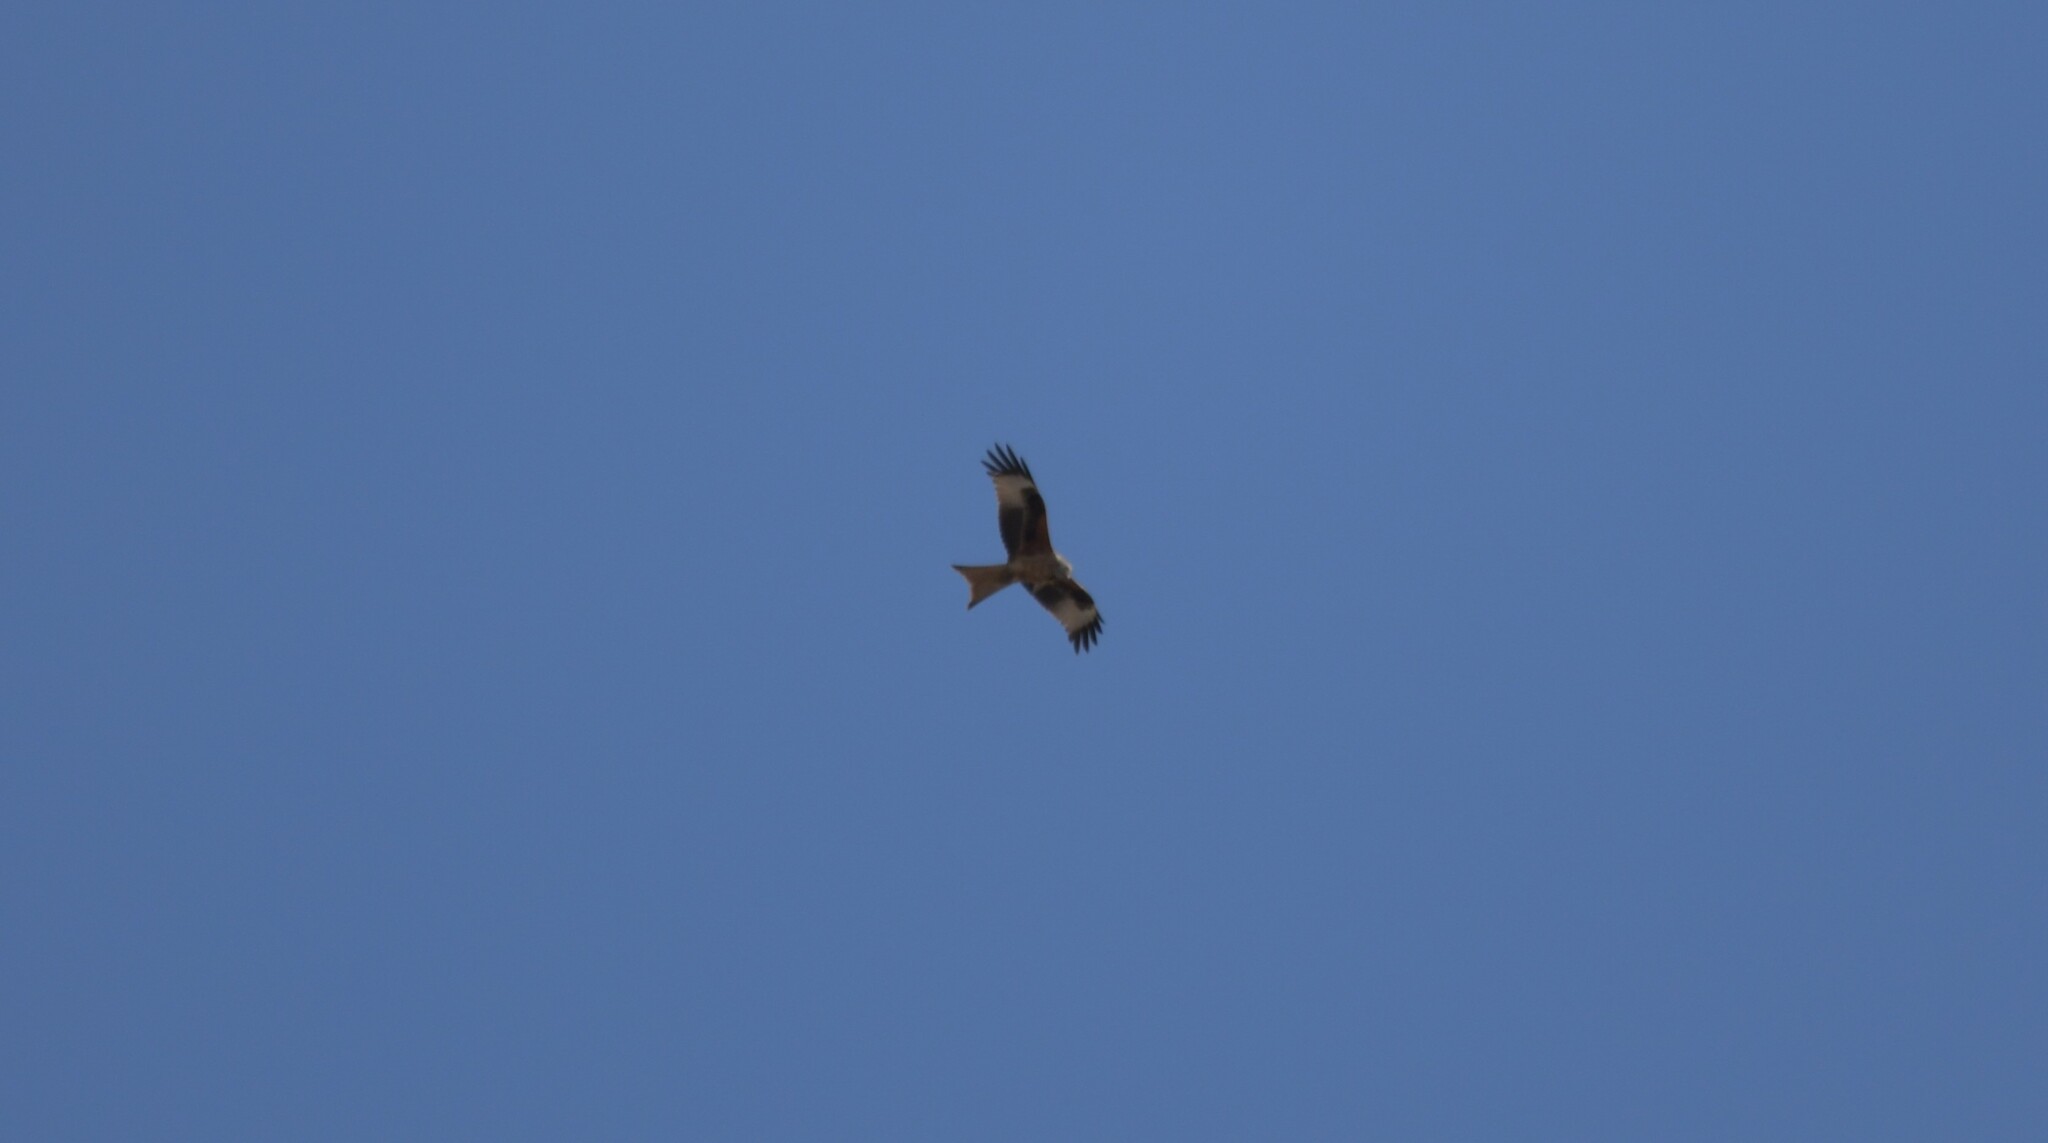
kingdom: Animalia
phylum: Chordata
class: Aves
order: Accipitriformes
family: Accipitridae
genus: Milvus
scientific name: Milvus milvus
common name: Red kite
